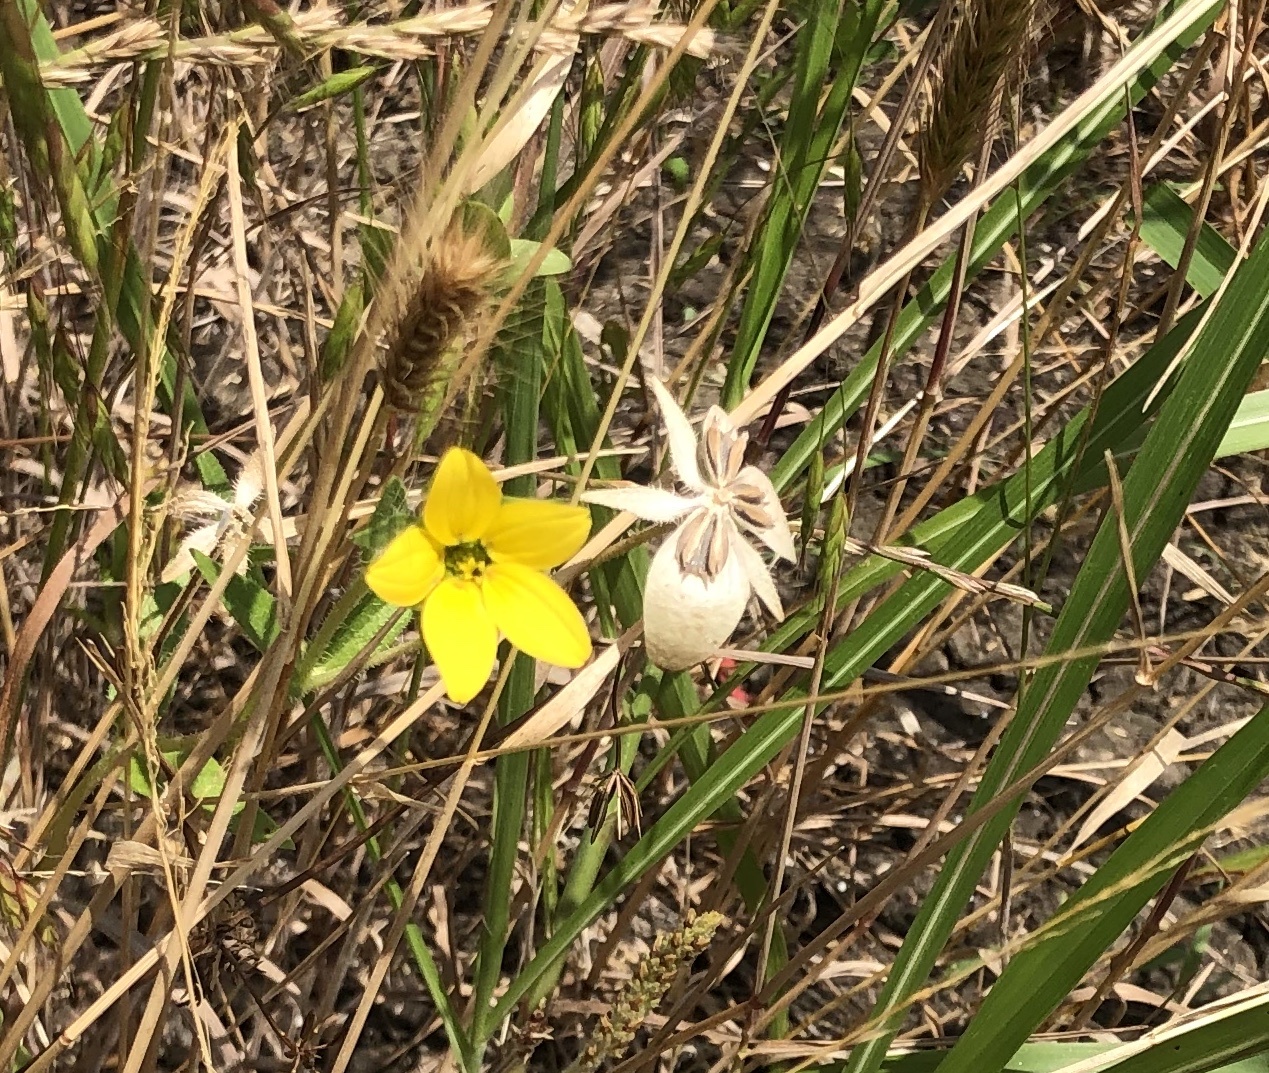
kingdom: Plantae
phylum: Tracheophyta
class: Magnoliopsida
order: Asterales
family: Asteraceae
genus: Lindheimera
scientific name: Lindheimera texana
